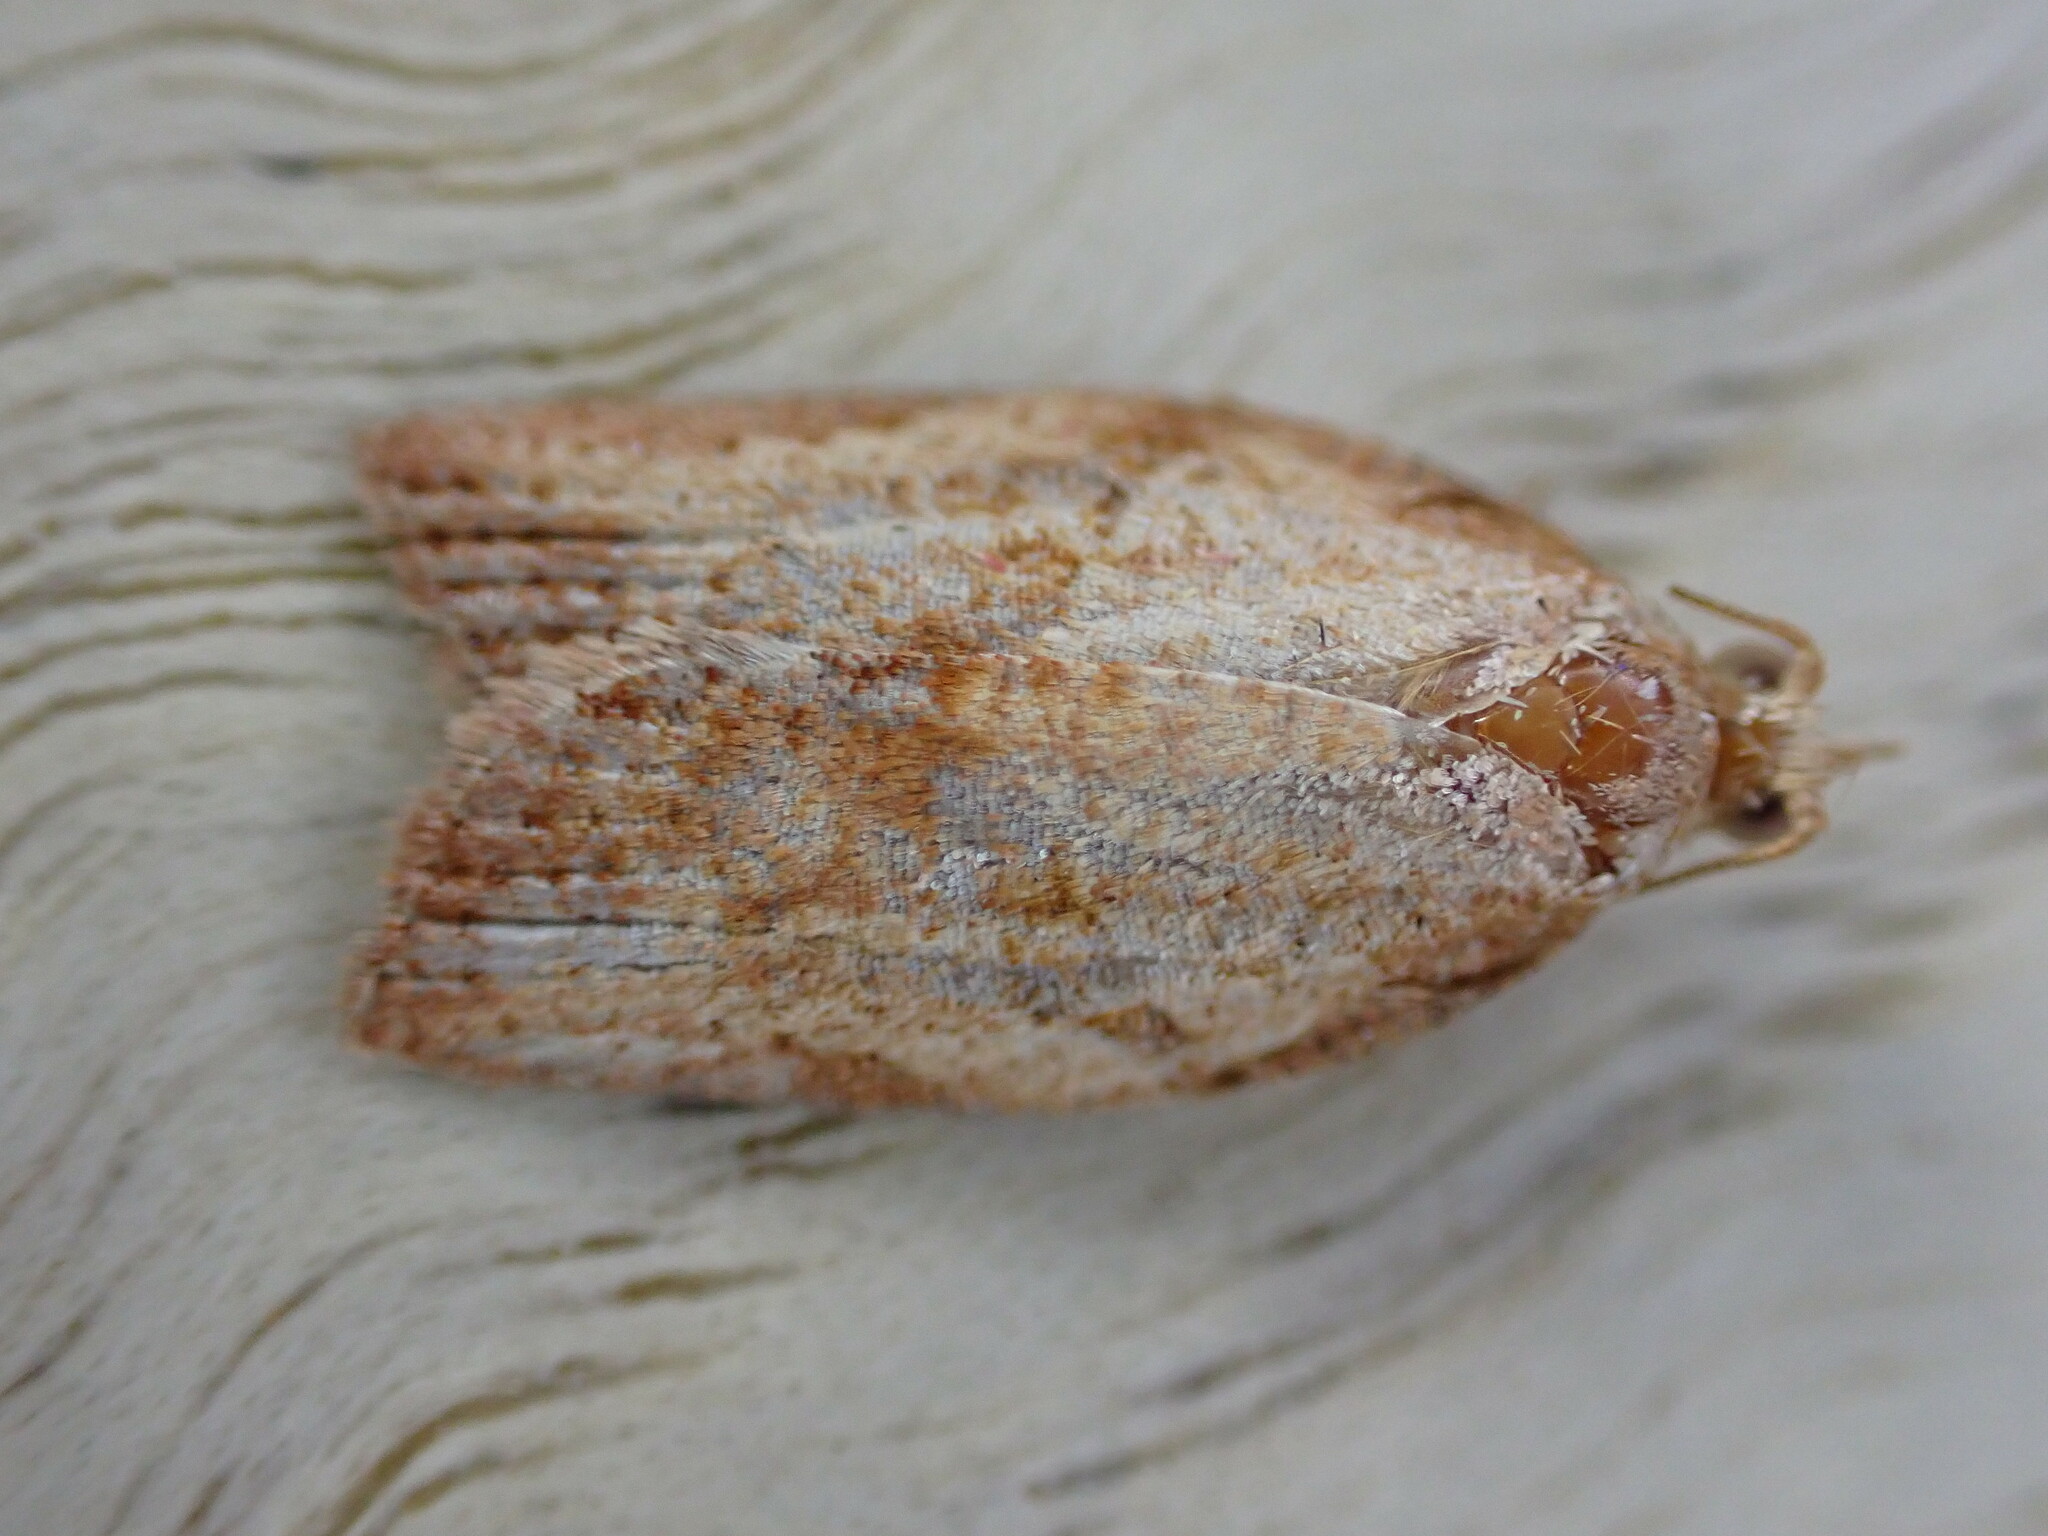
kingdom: Animalia
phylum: Arthropoda
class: Insecta
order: Lepidoptera
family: Tortricidae
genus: Epiphyas
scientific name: Epiphyas postvittana
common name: Light brown apple moth
